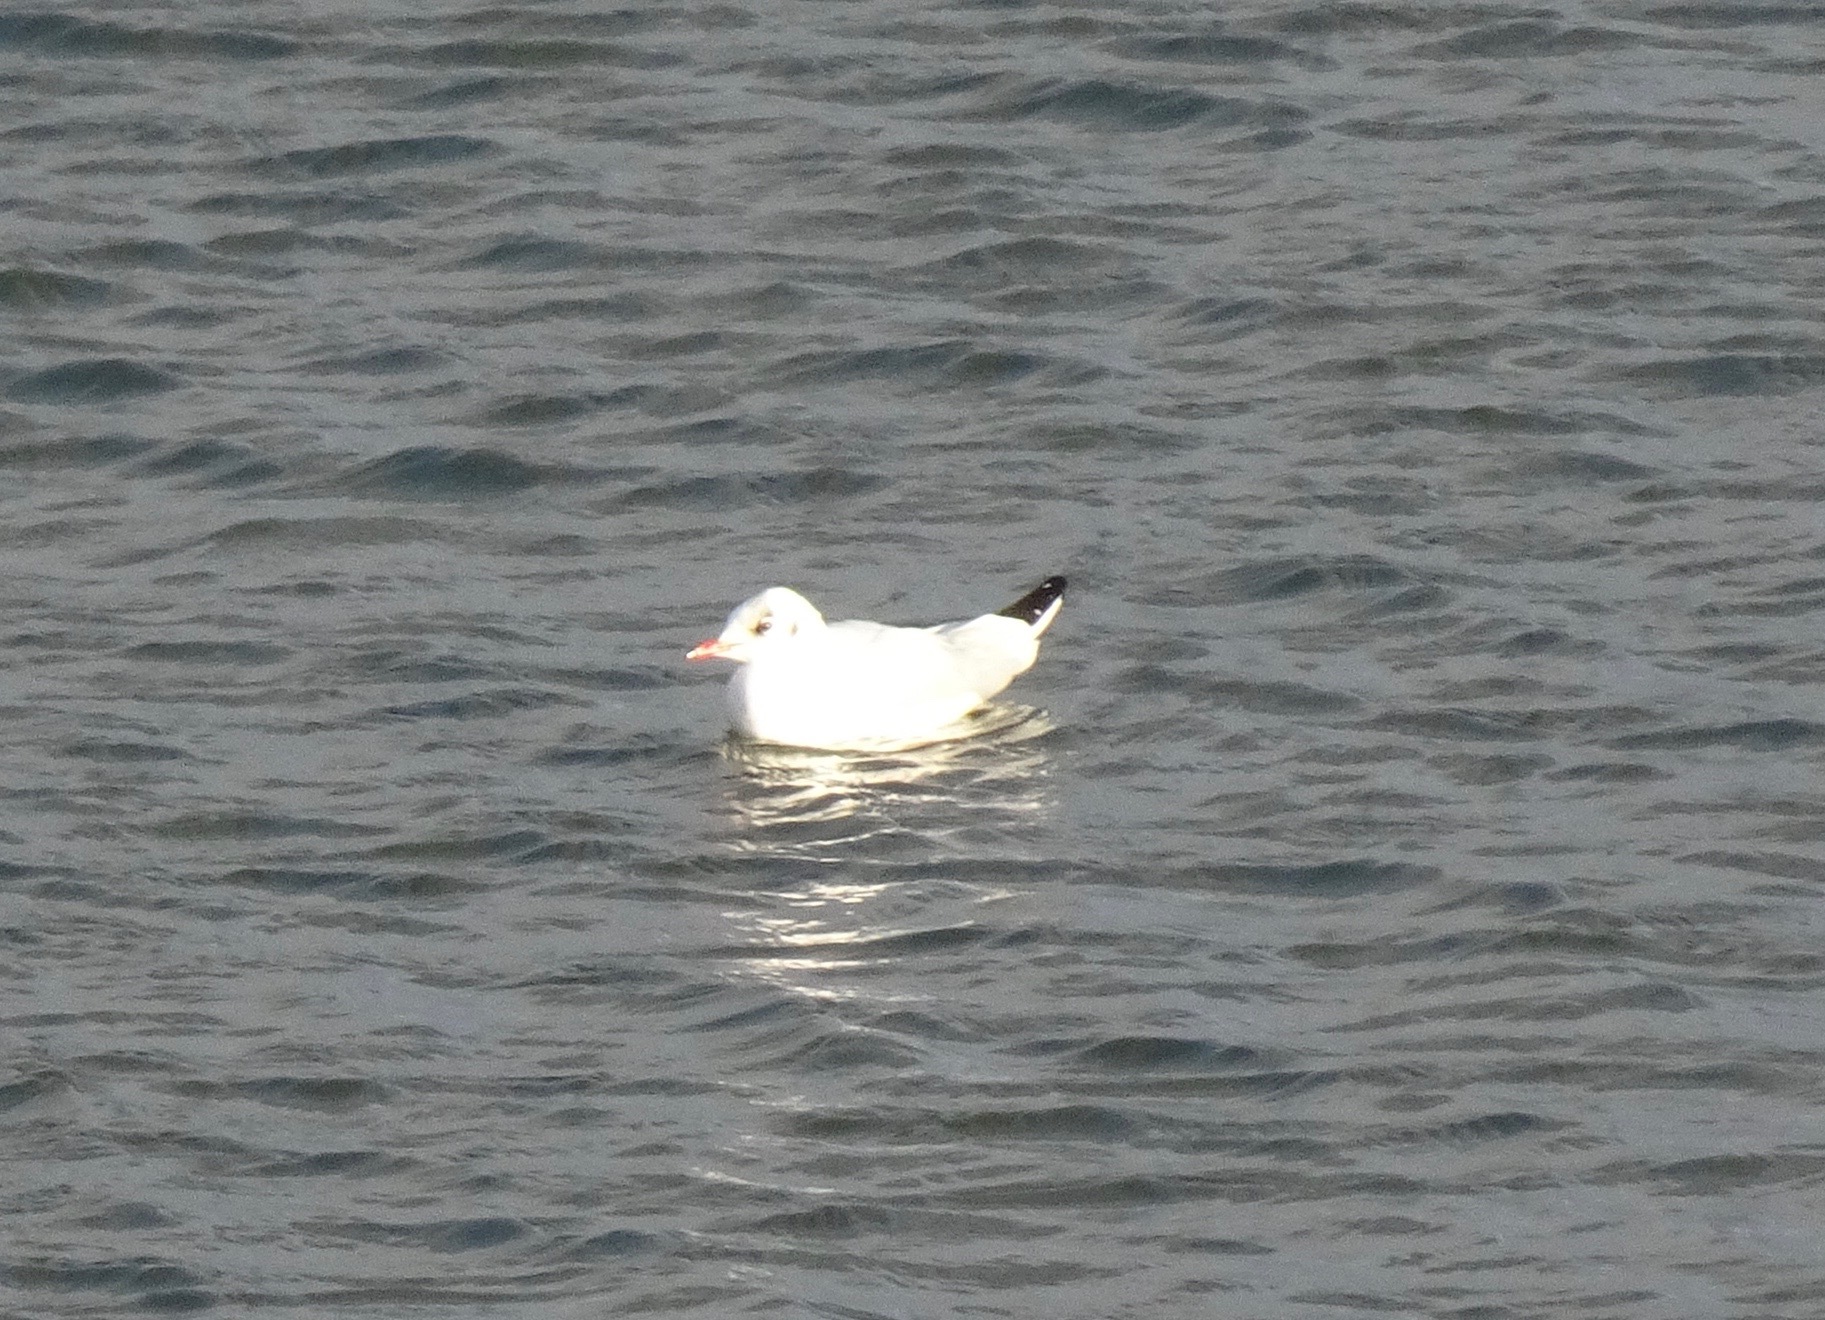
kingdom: Animalia
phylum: Chordata
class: Aves
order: Charadriiformes
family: Laridae
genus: Chroicocephalus
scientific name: Chroicocephalus ridibundus
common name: Black-headed gull
